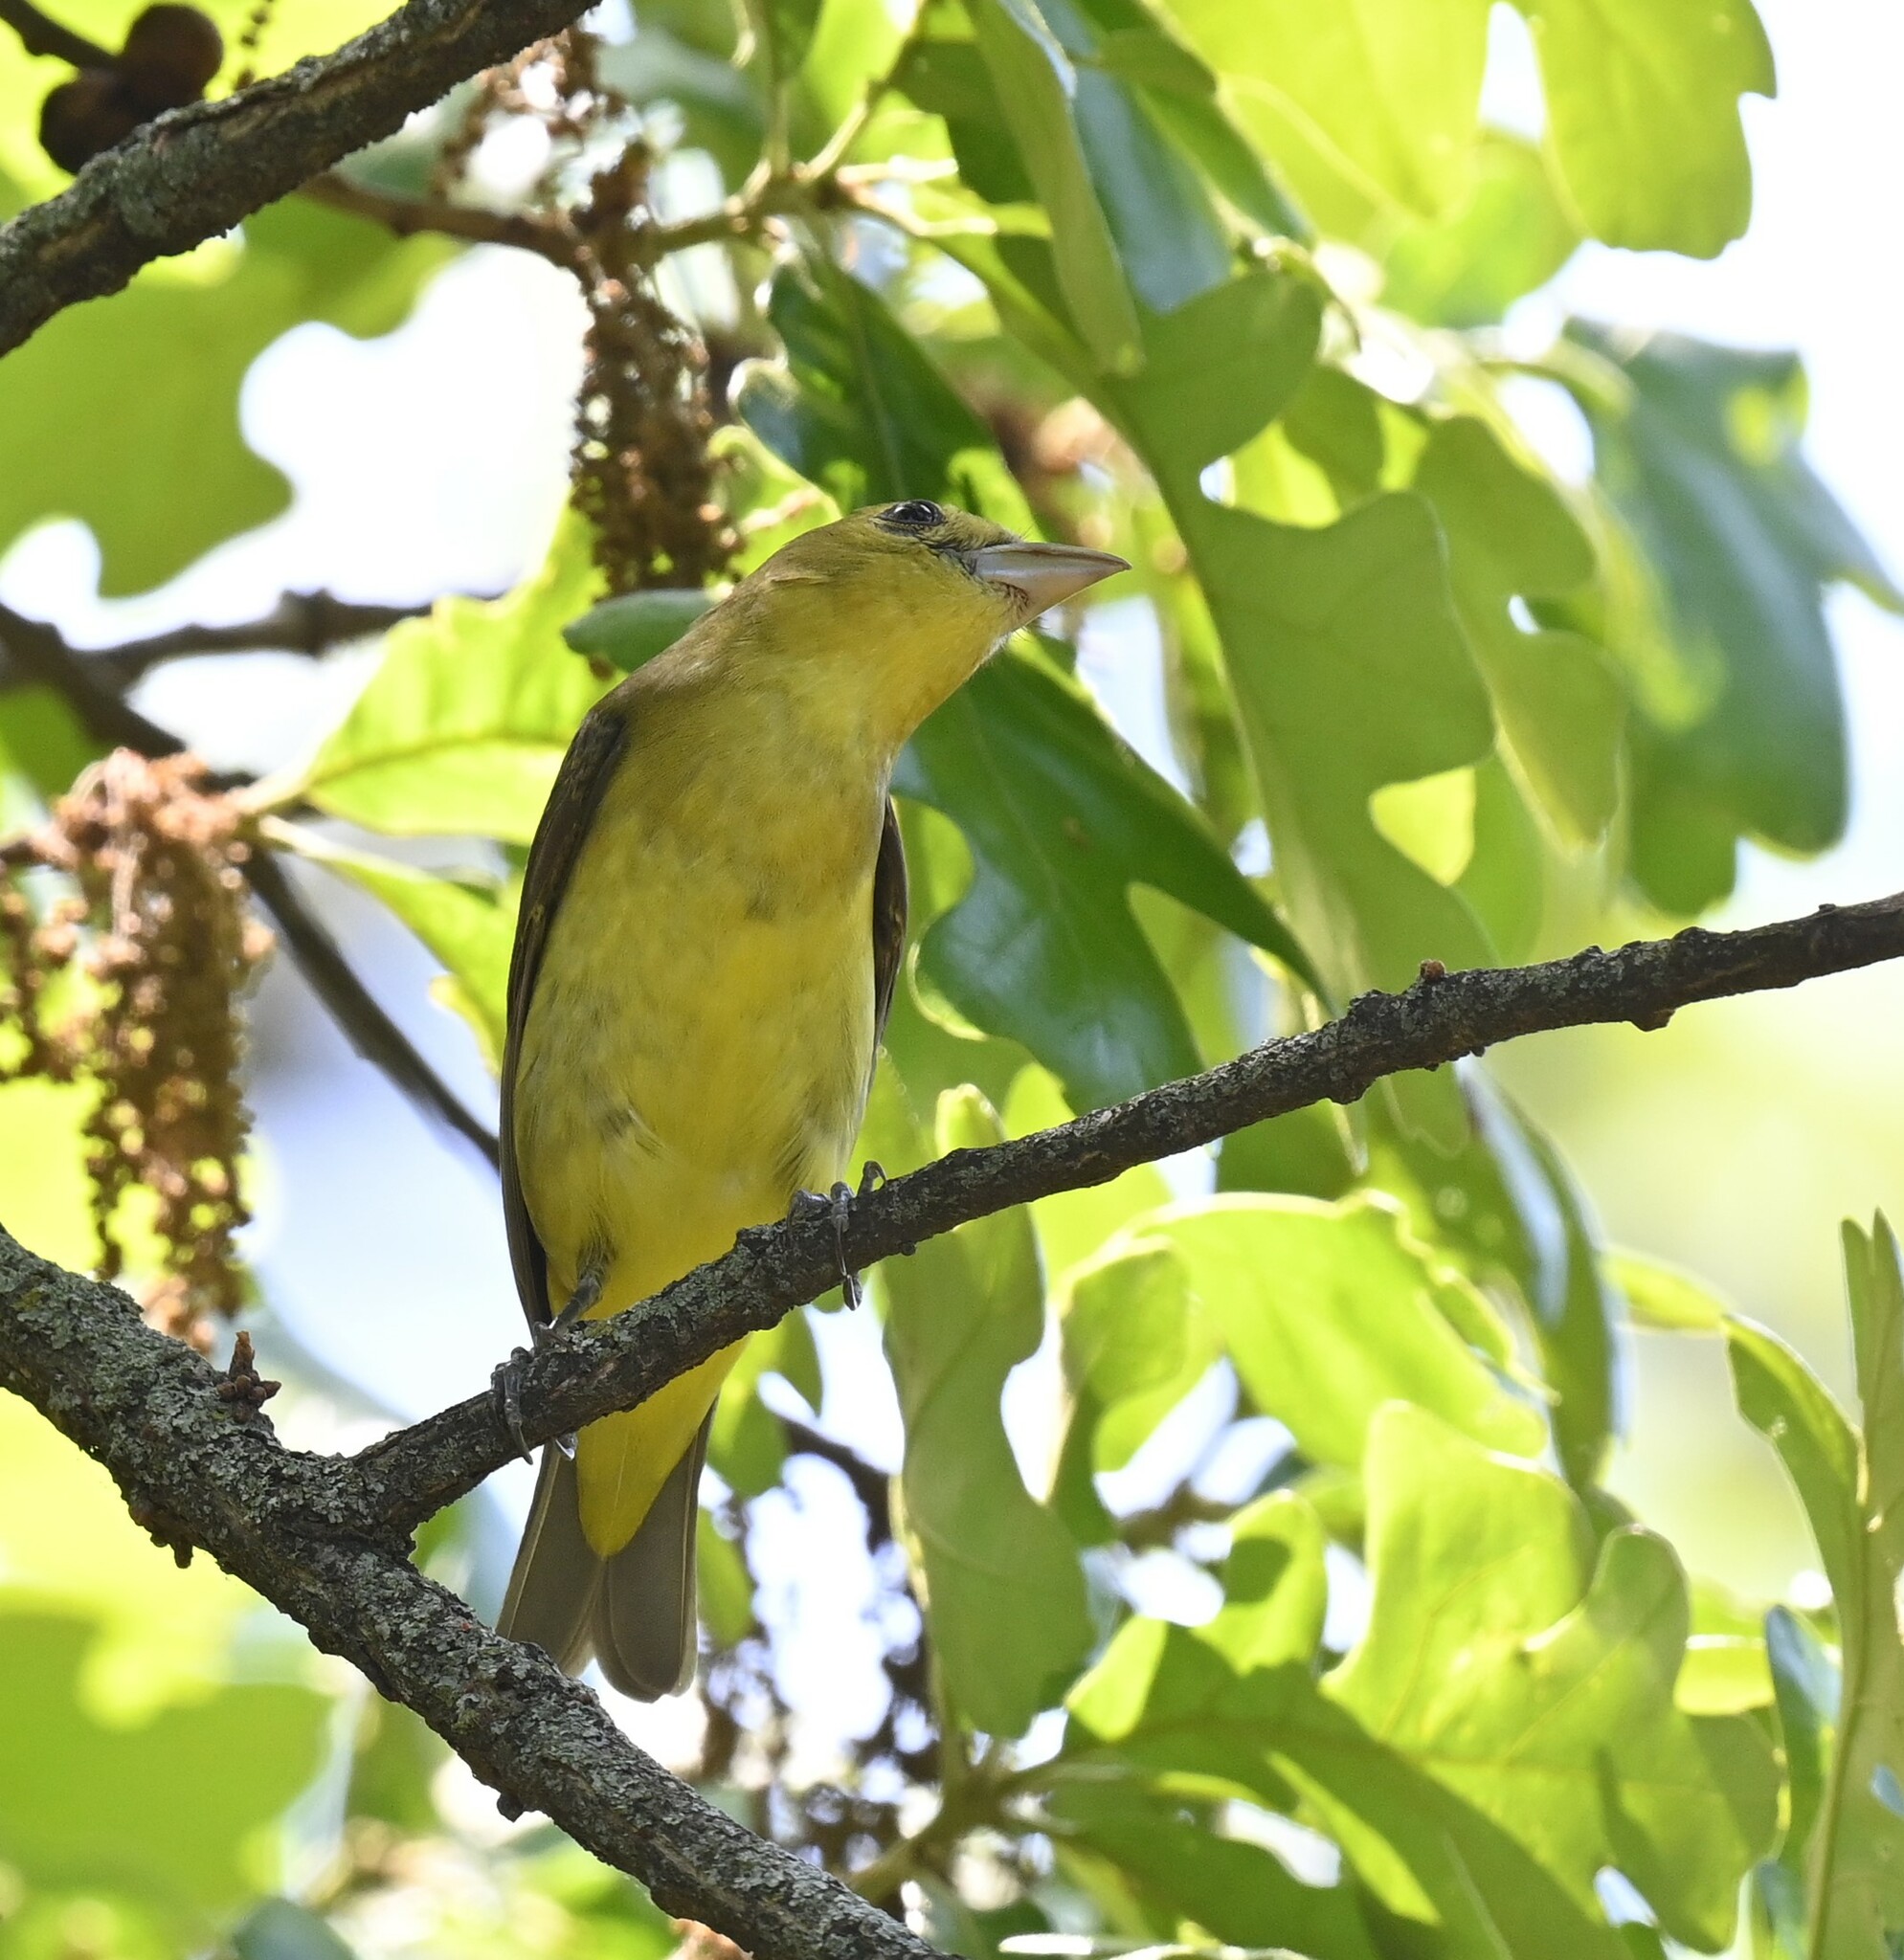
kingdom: Animalia
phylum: Chordata
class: Aves
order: Passeriformes
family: Cardinalidae
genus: Piranga
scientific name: Piranga olivacea
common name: Scarlet tanager
